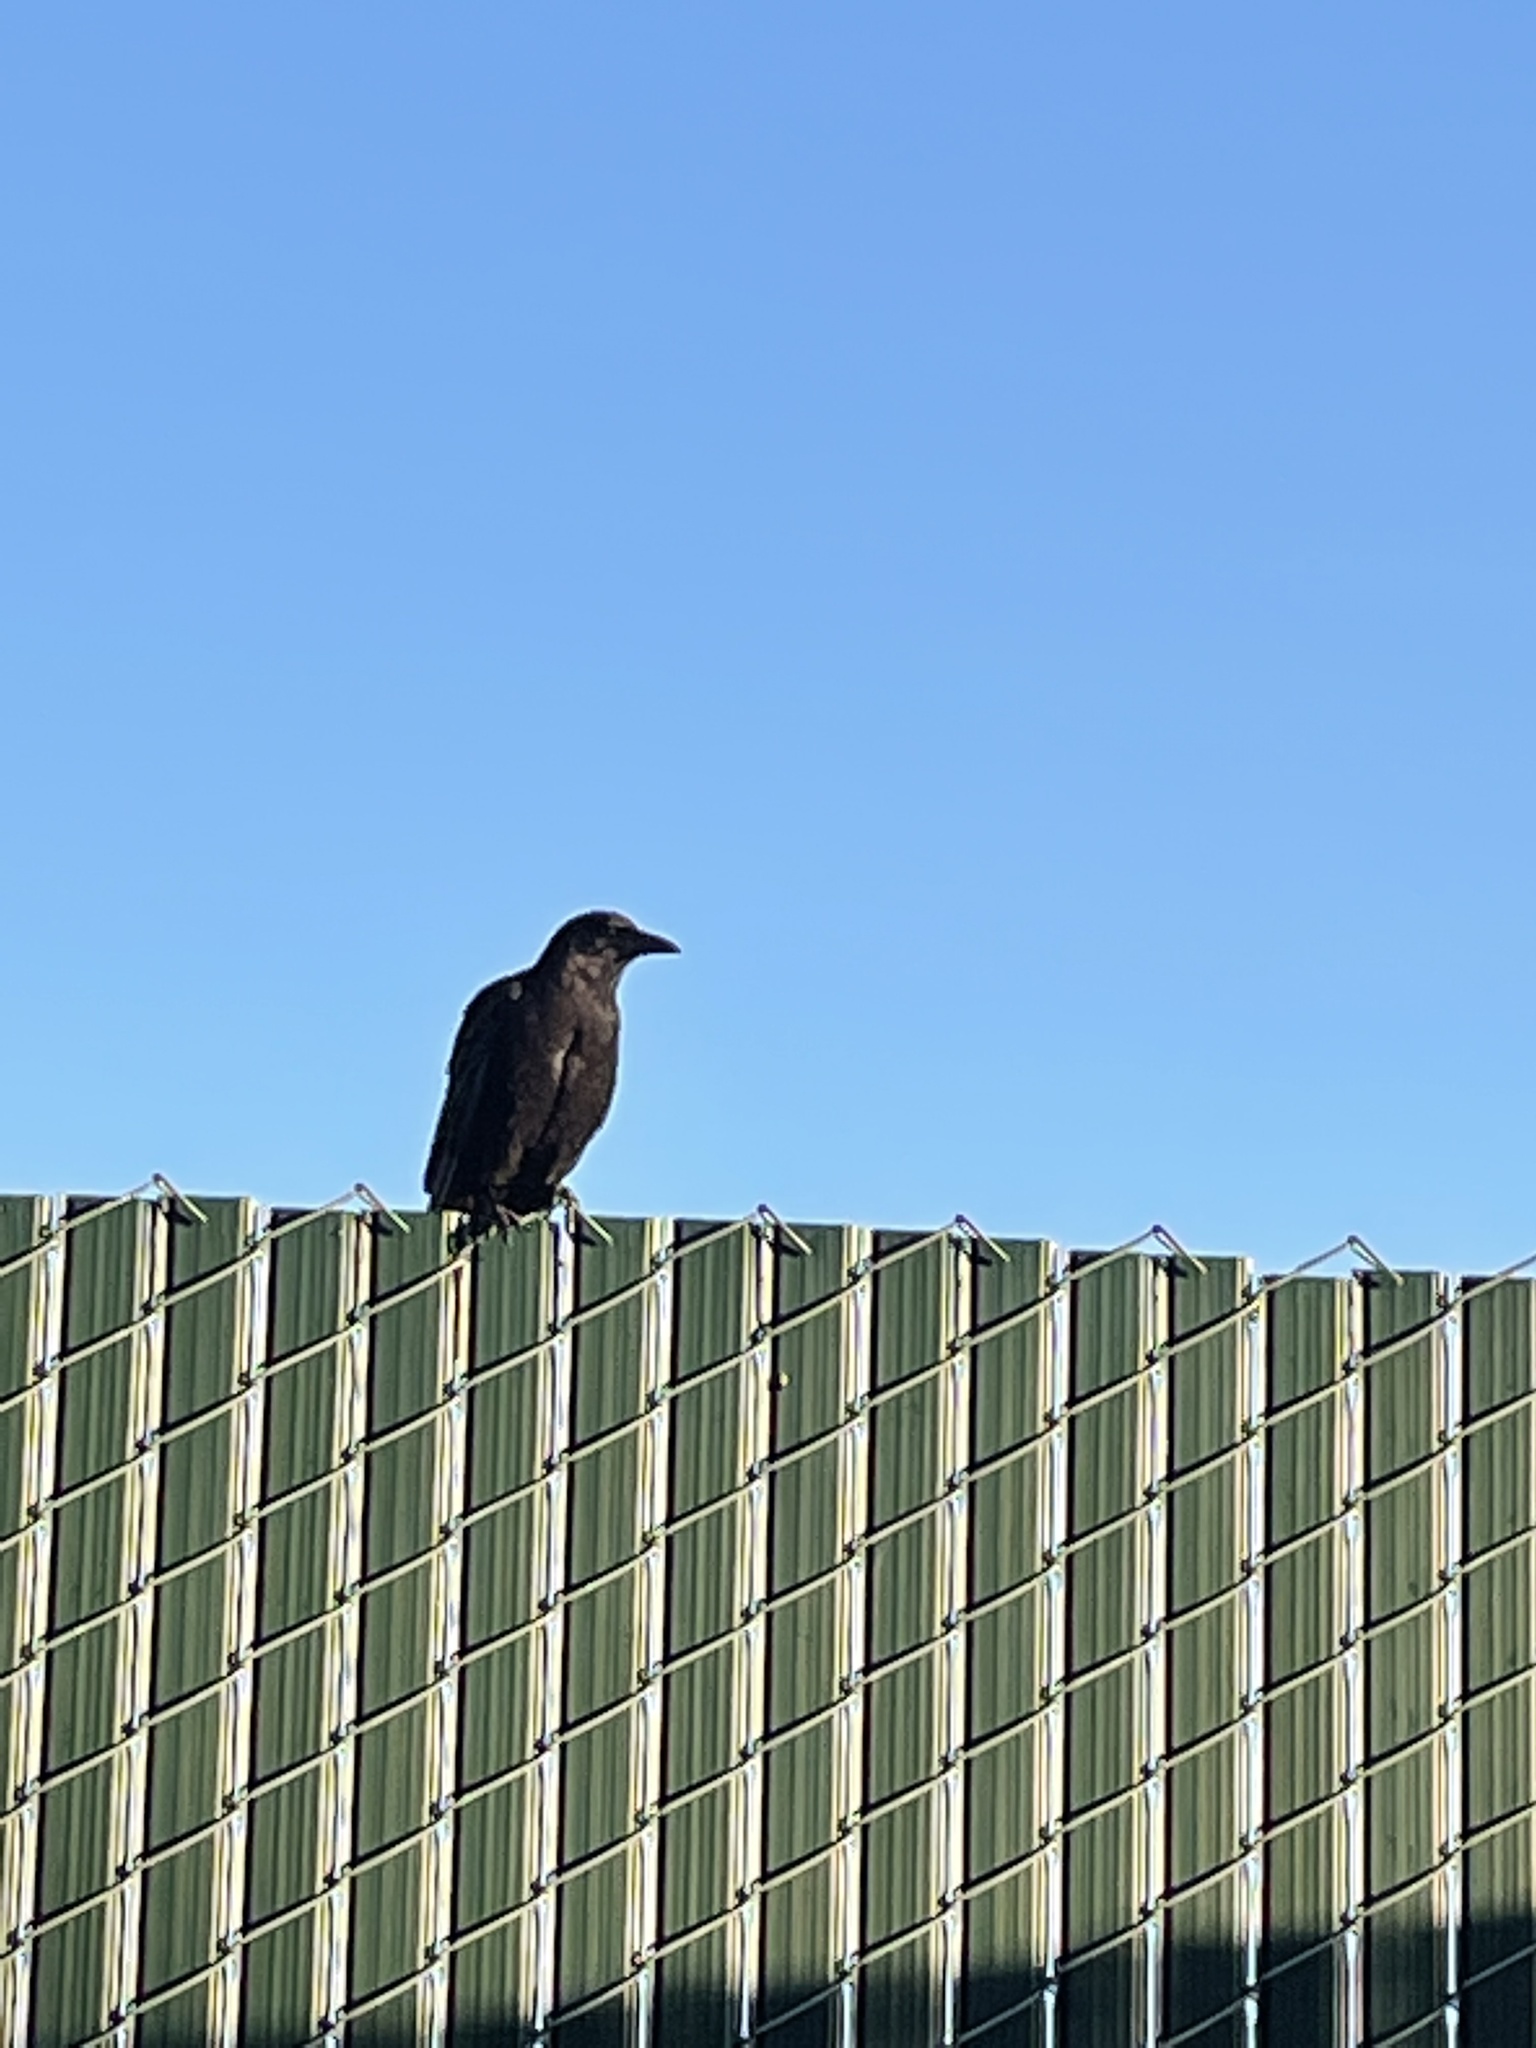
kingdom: Animalia
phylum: Chordata
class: Aves
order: Passeriformes
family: Corvidae
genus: Corvus
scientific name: Corvus brachyrhynchos
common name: American crow
